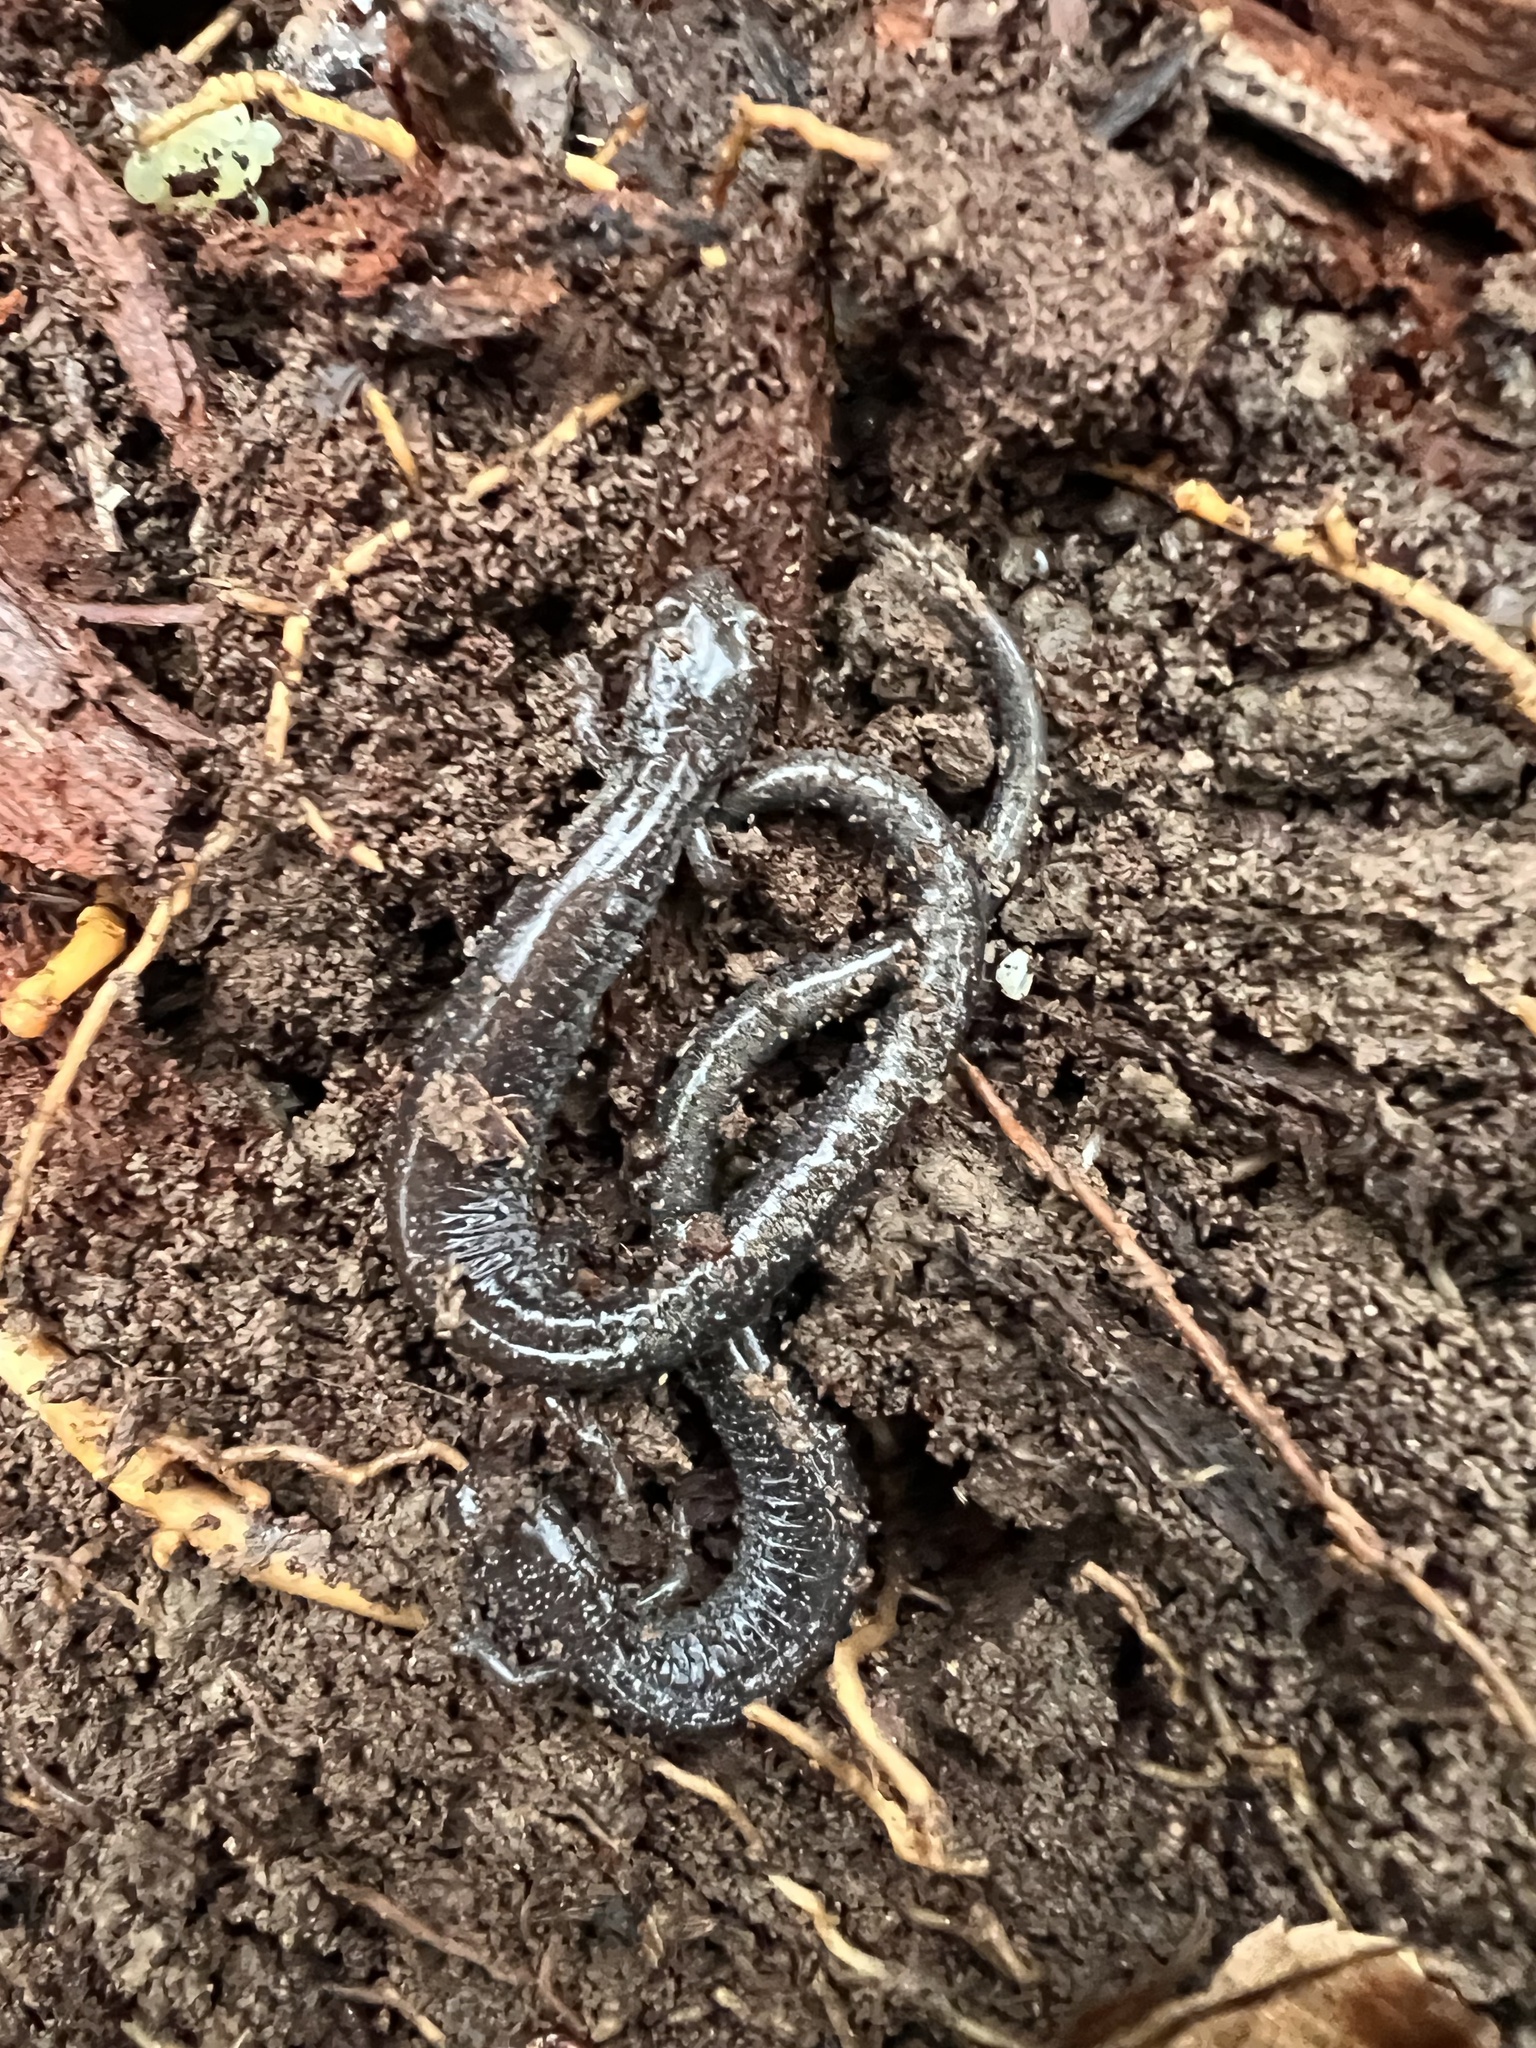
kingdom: Animalia
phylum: Chordata
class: Amphibia
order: Caudata
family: Plethodontidae
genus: Plethodon
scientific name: Plethodon cinereus
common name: Redback salamander
